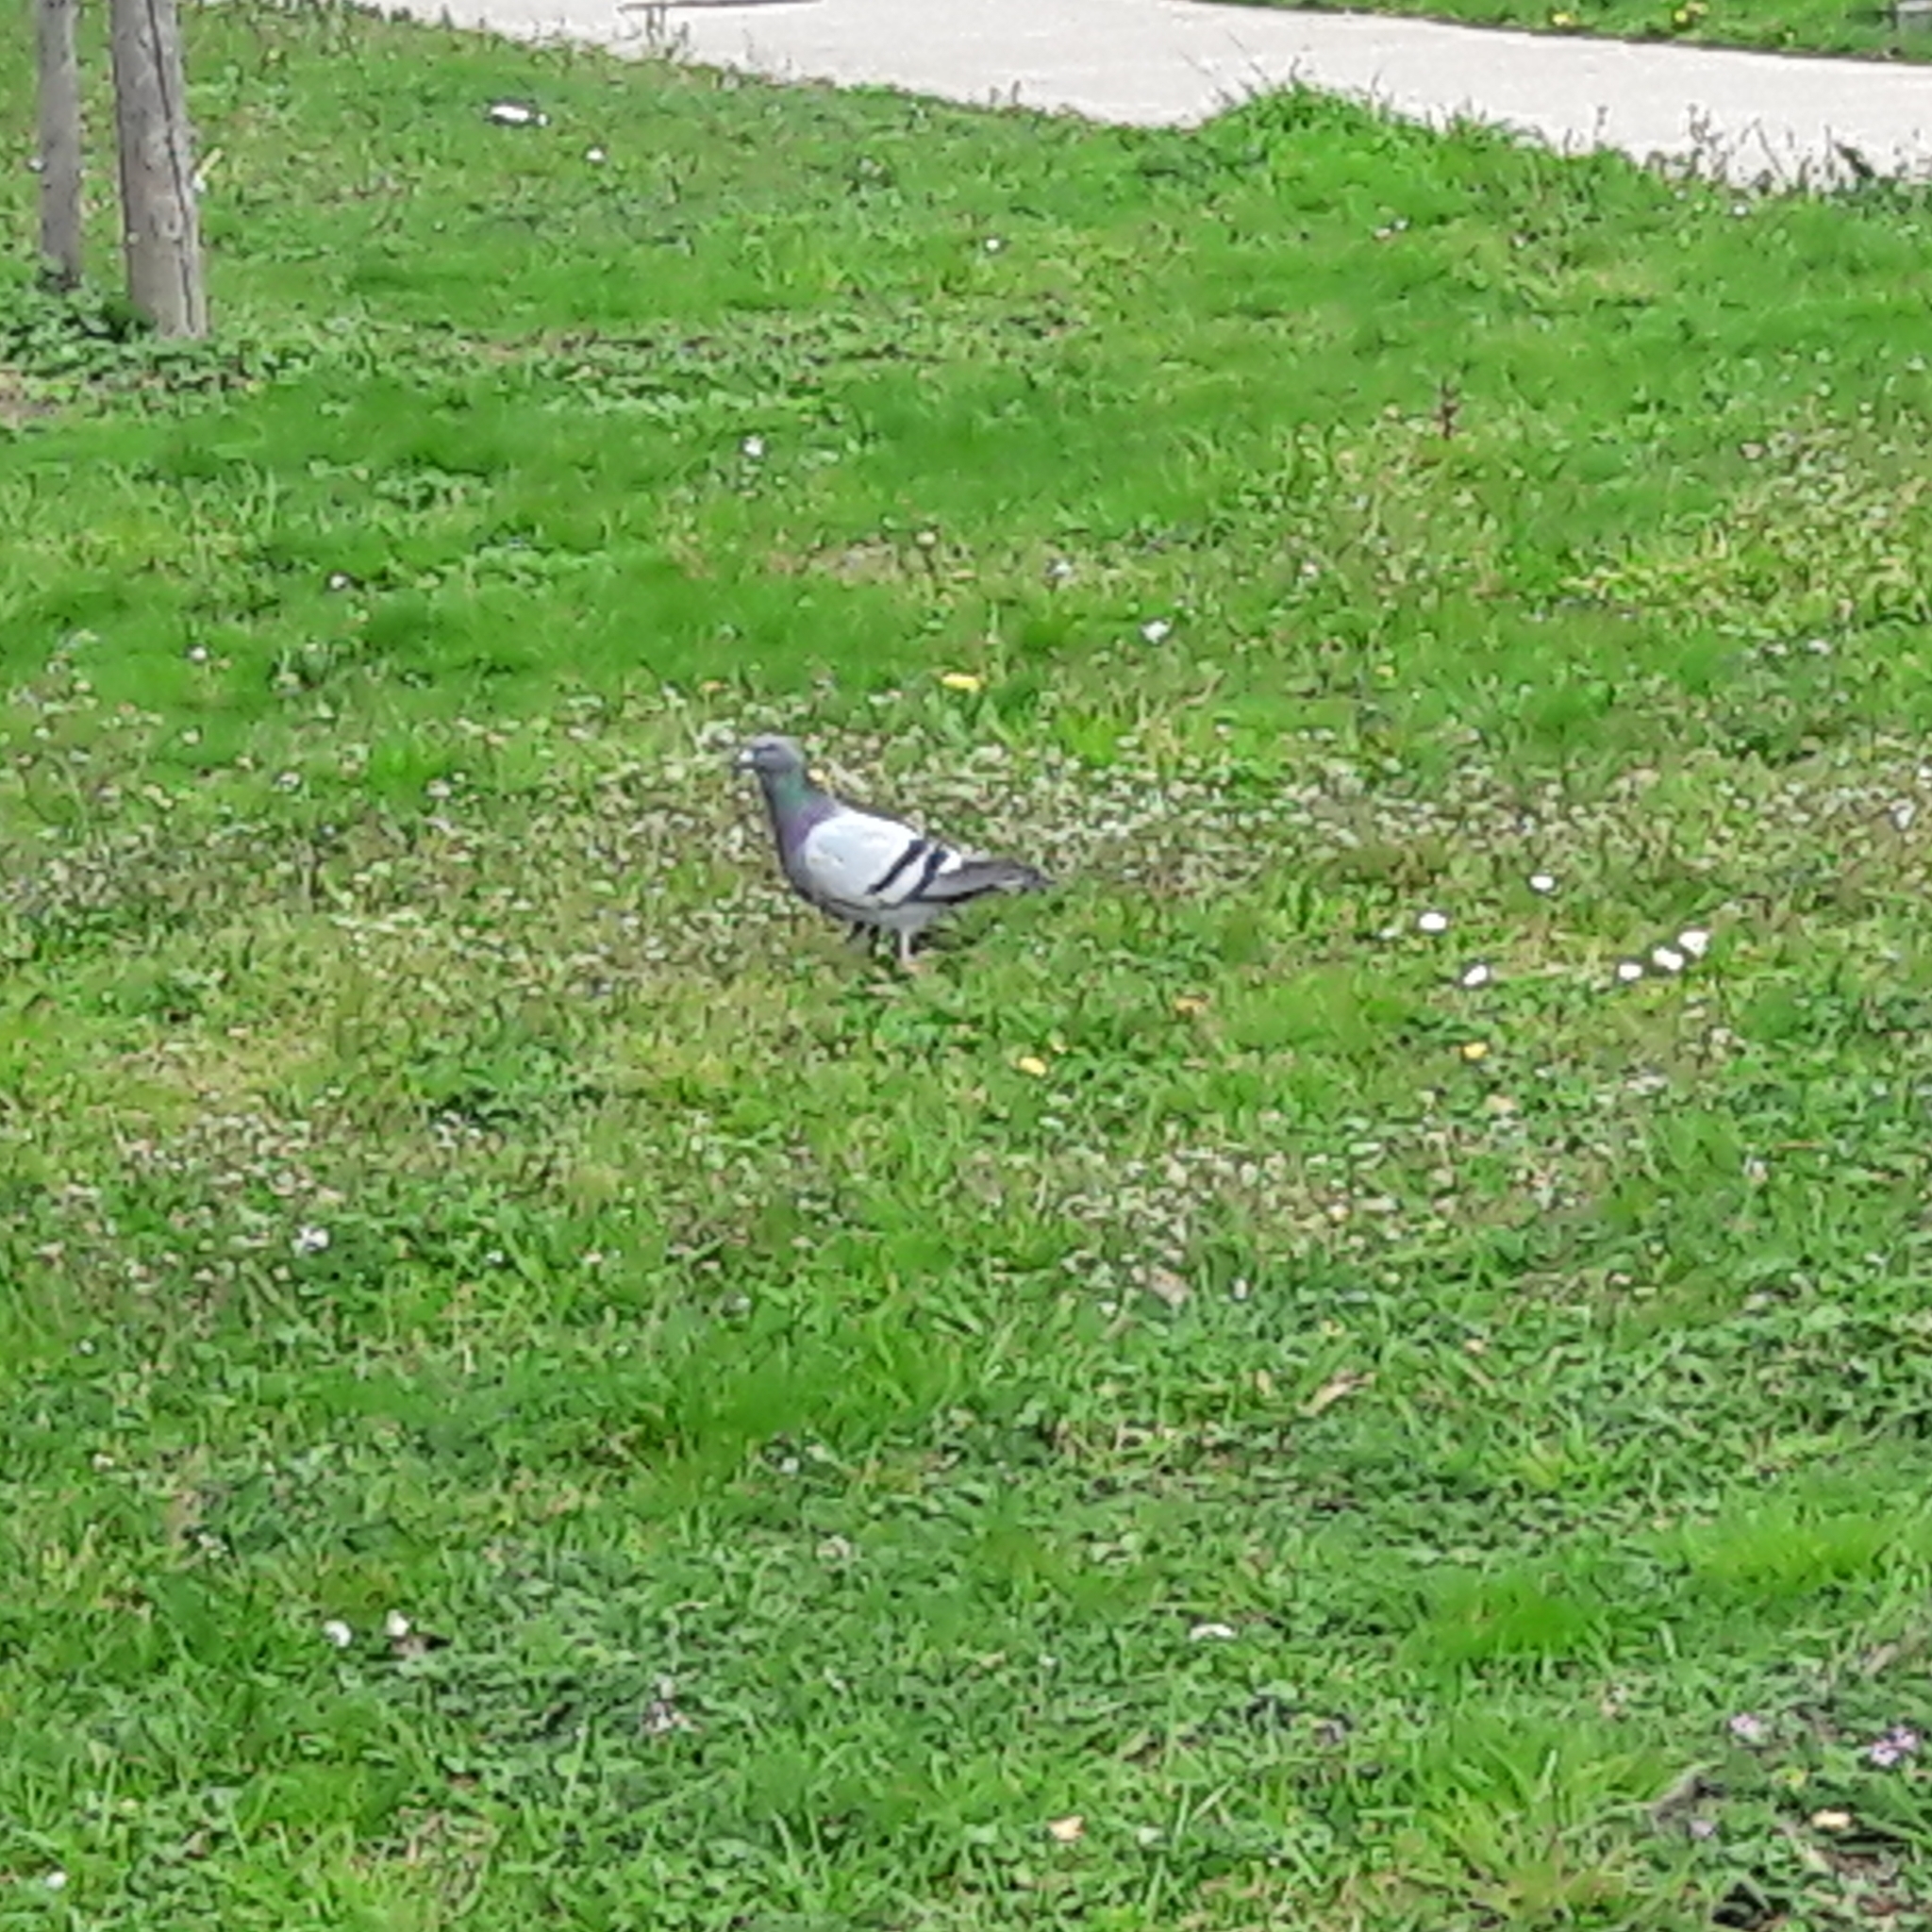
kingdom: Animalia
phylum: Chordata
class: Aves
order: Columbiformes
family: Columbidae
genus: Columba
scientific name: Columba livia
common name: Rock pigeon
